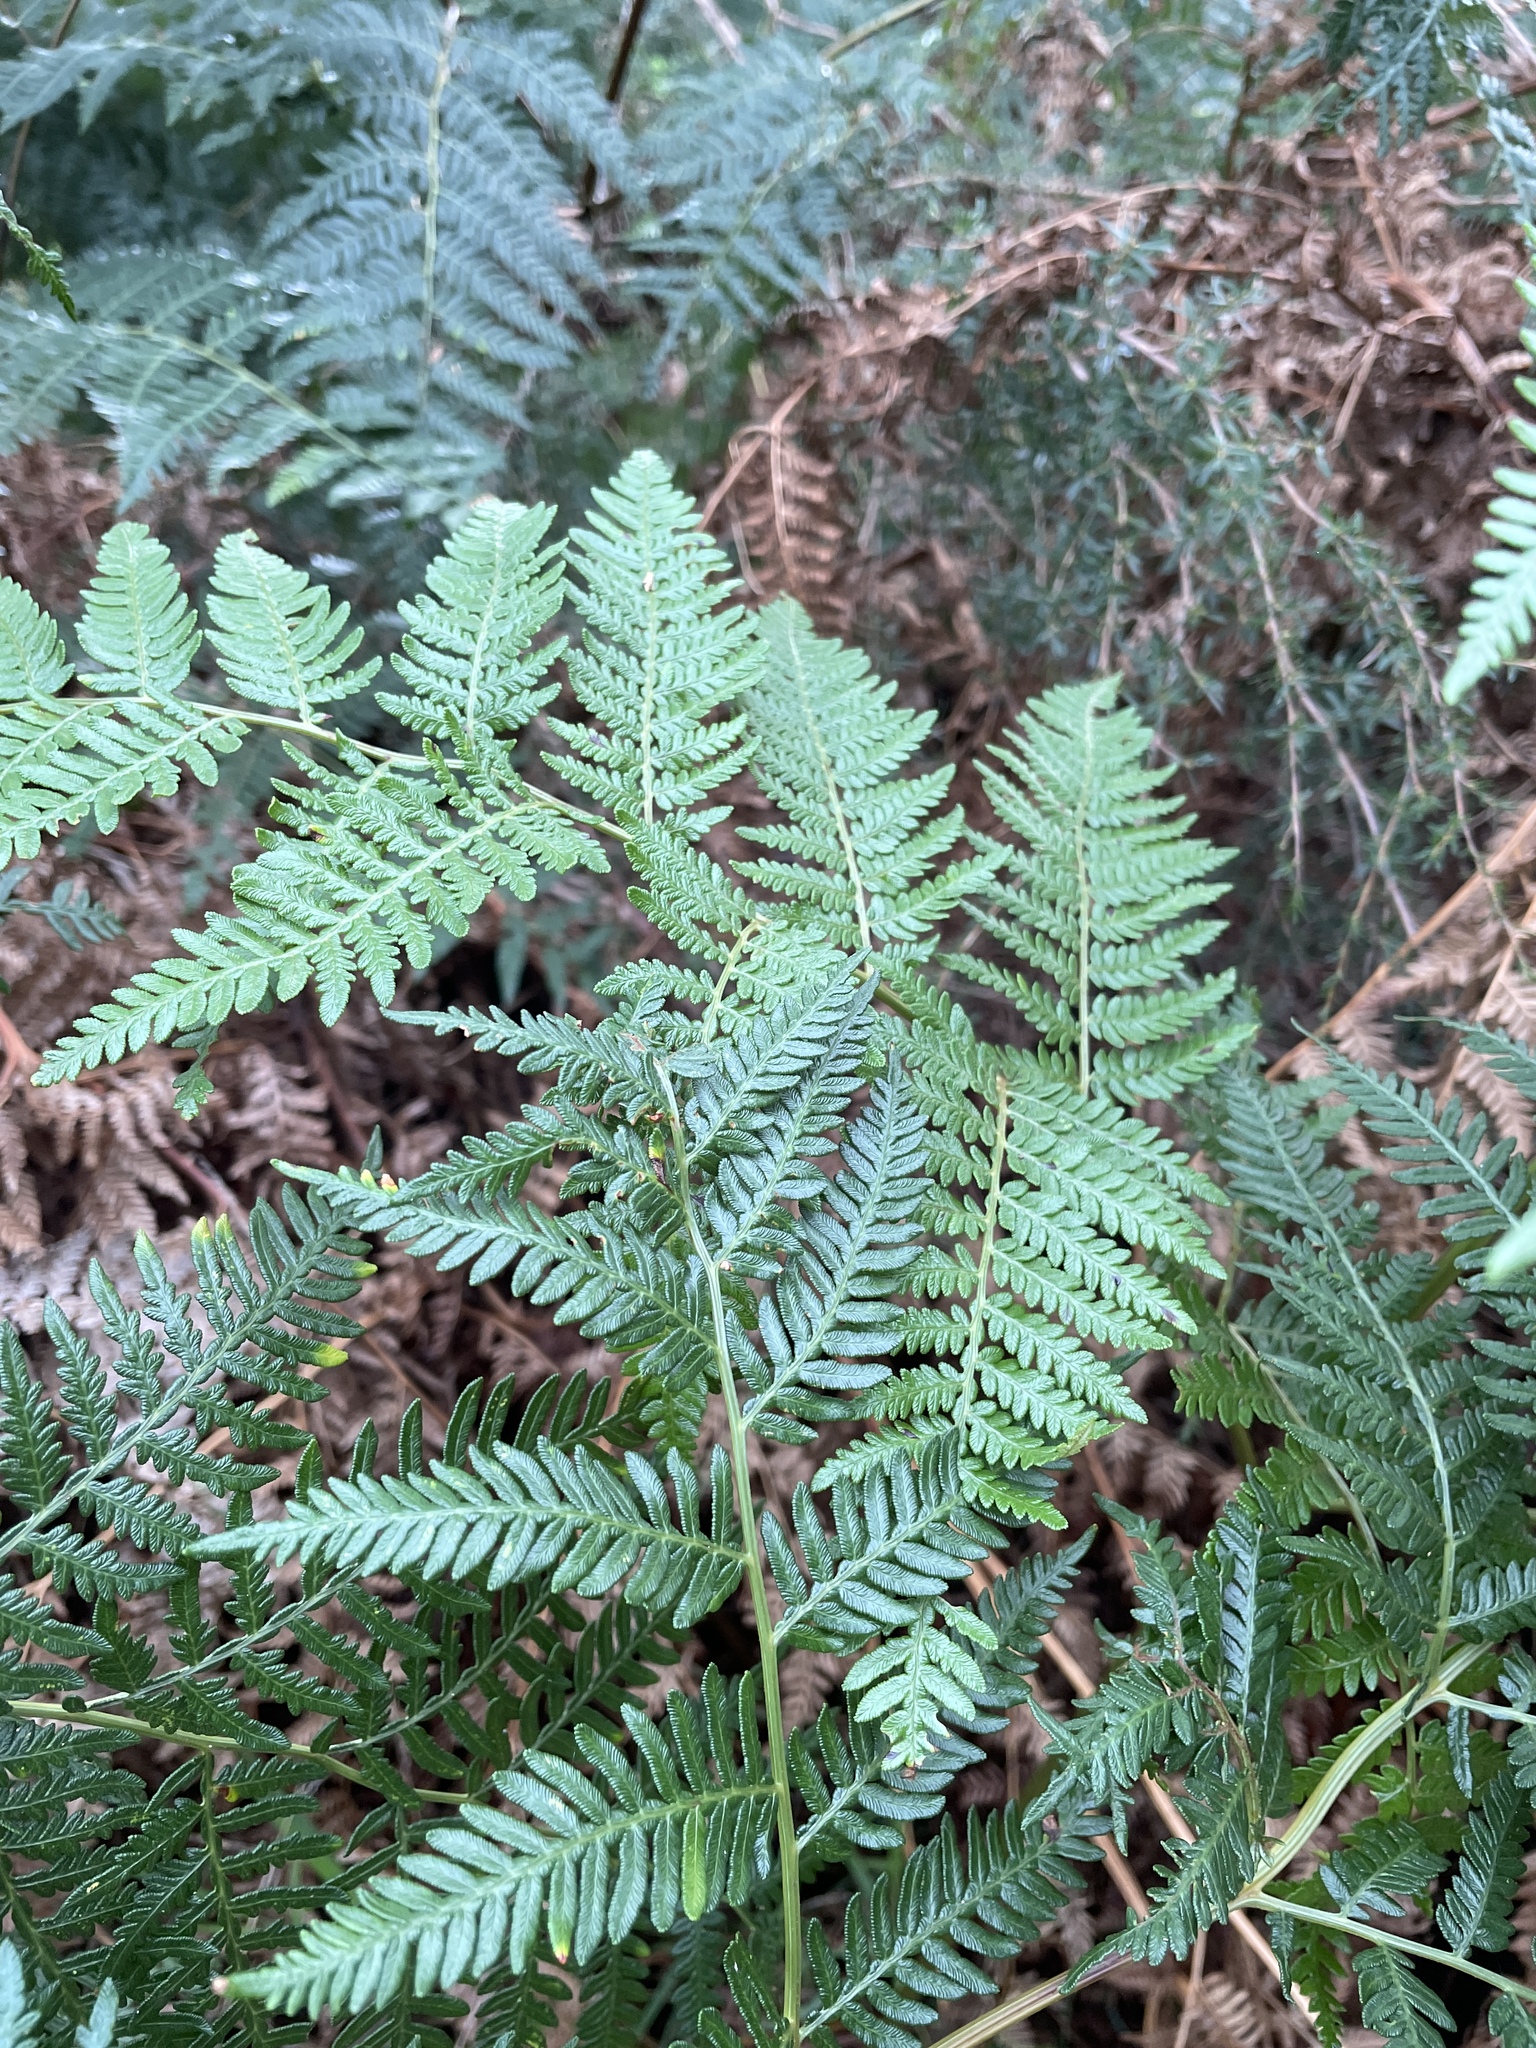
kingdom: Plantae
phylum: Tracheophyta
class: Polypodiopsida
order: Polypodiales
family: Dennstaedtiaceae
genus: Pteridium
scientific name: Pteridium esculentum
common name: Bracken fern
